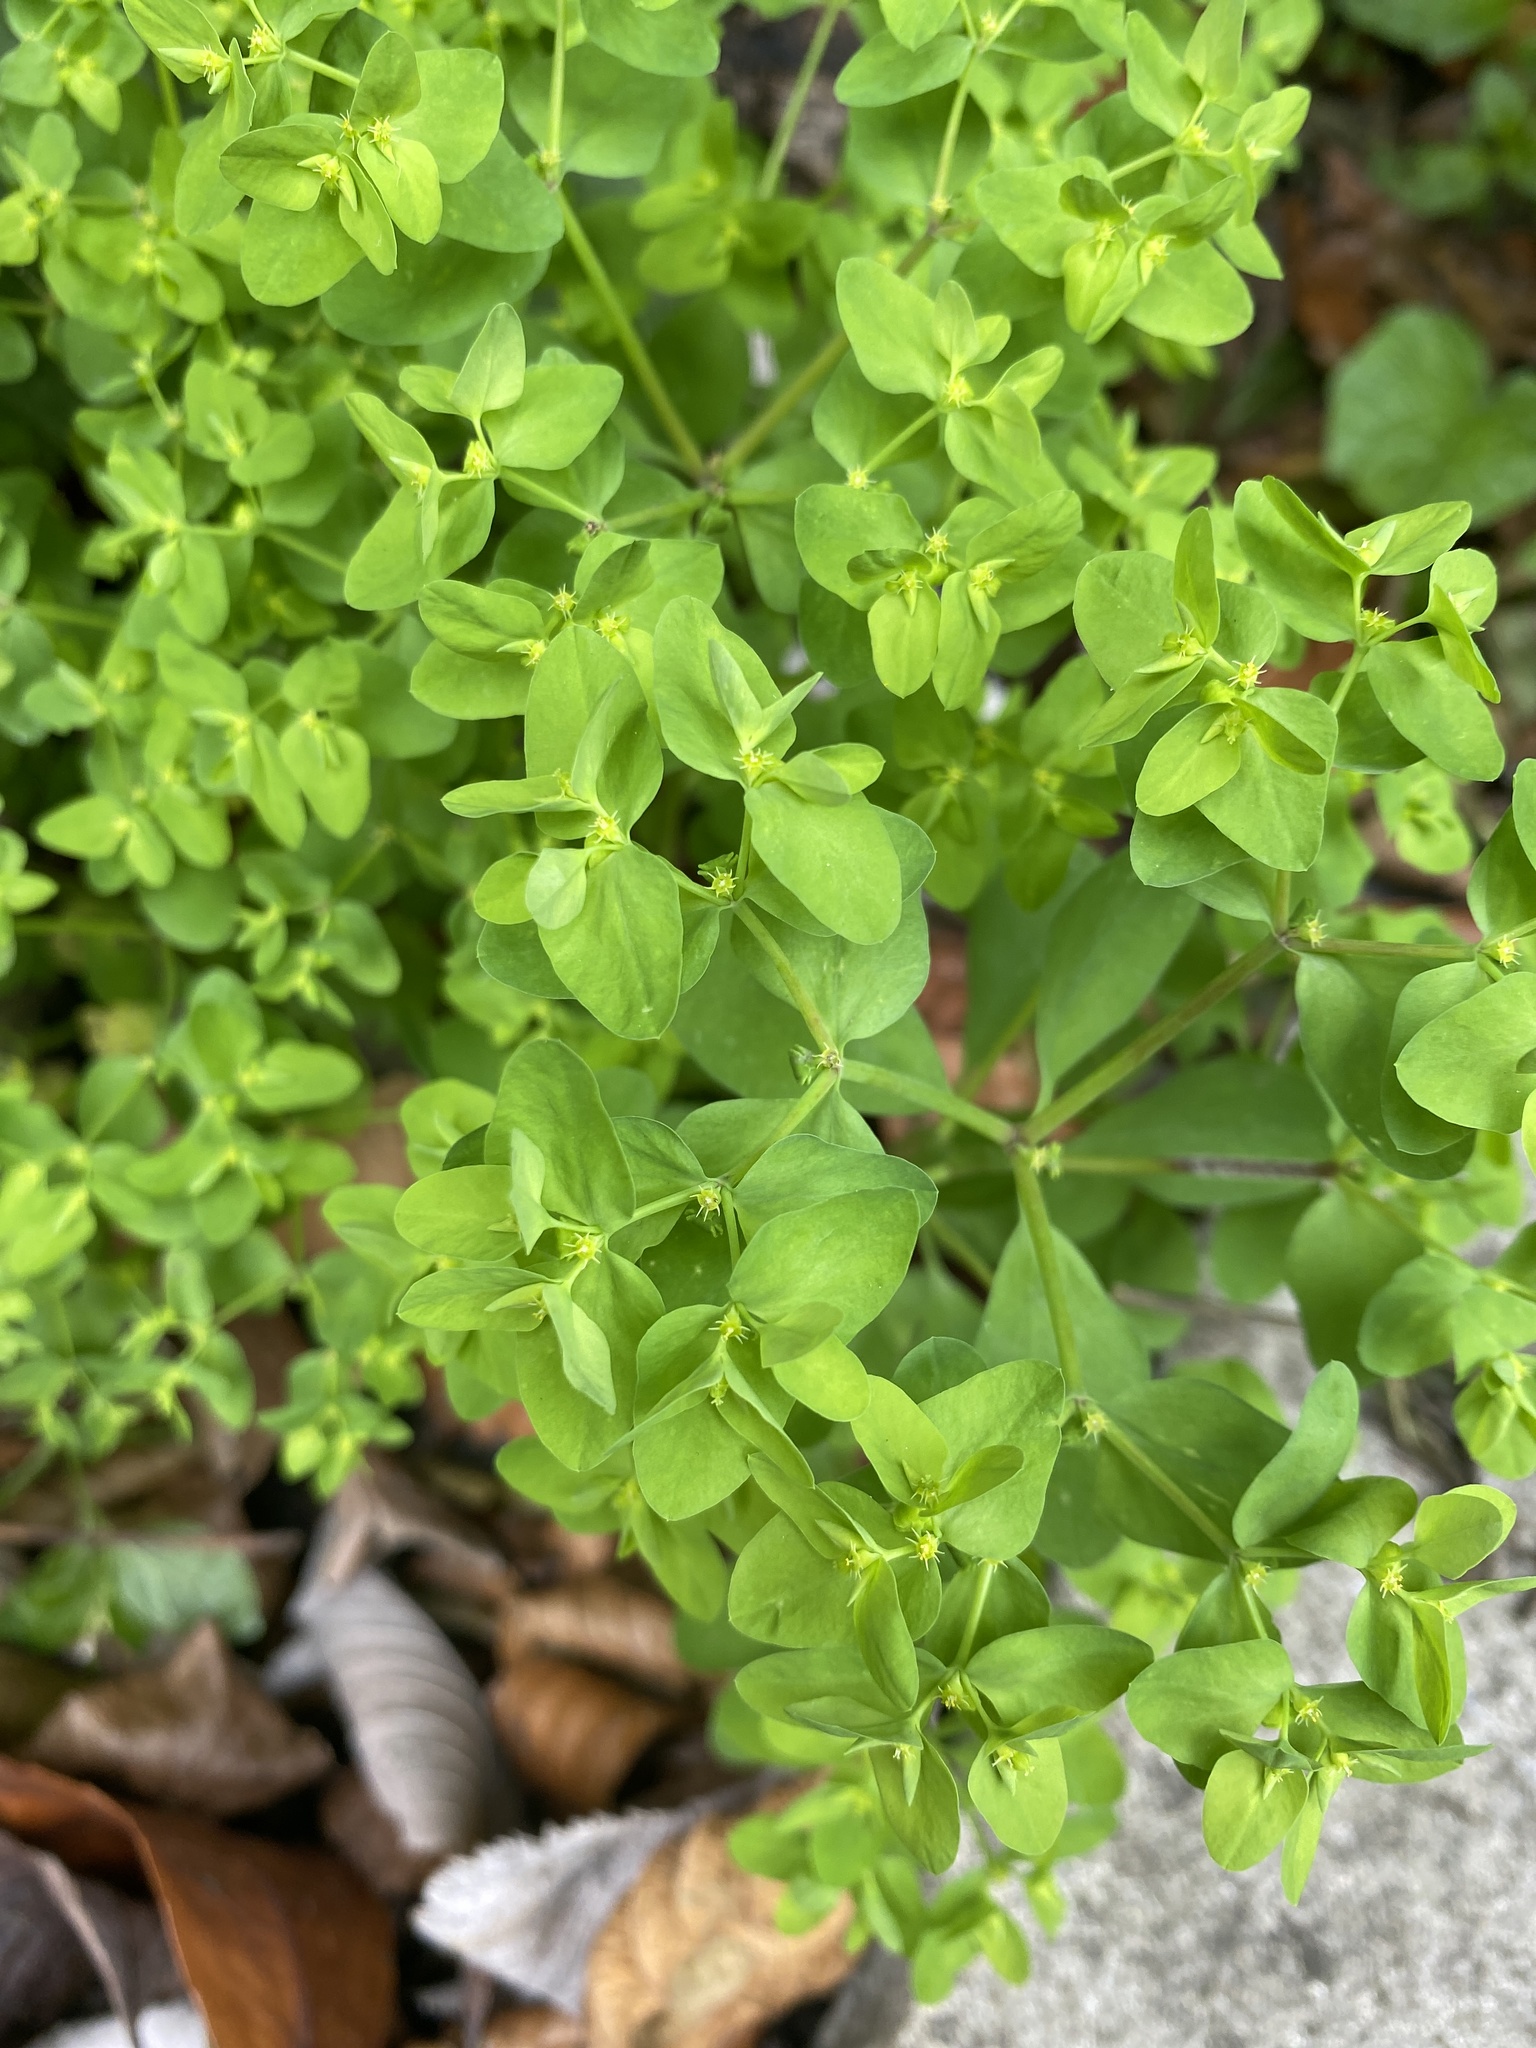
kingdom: Plantae
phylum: Tracheophyta
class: Magnoliopsida
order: Malpighiales
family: Euphorbiaceae
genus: Euphorbia
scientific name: Euphorbia peplus
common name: Petty spurge
